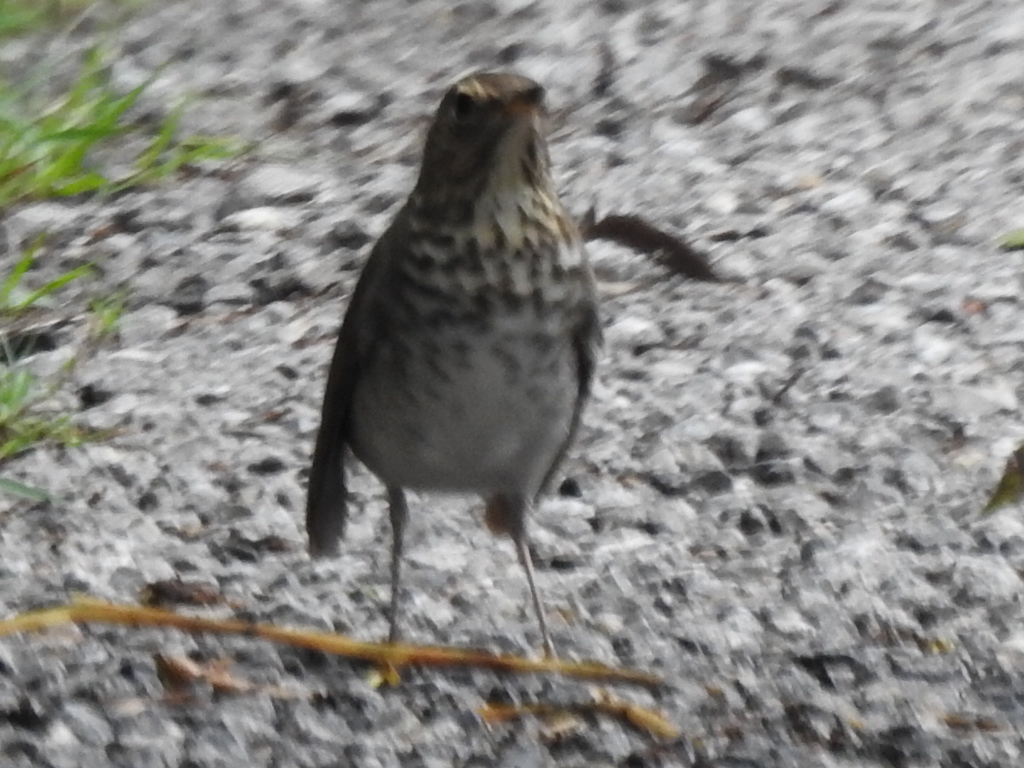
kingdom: Animalia
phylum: Chordata
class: Aves
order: Passeriformes
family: Turdidae
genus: Catharus
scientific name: Catharus ustulatus
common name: Swainson's thrush
